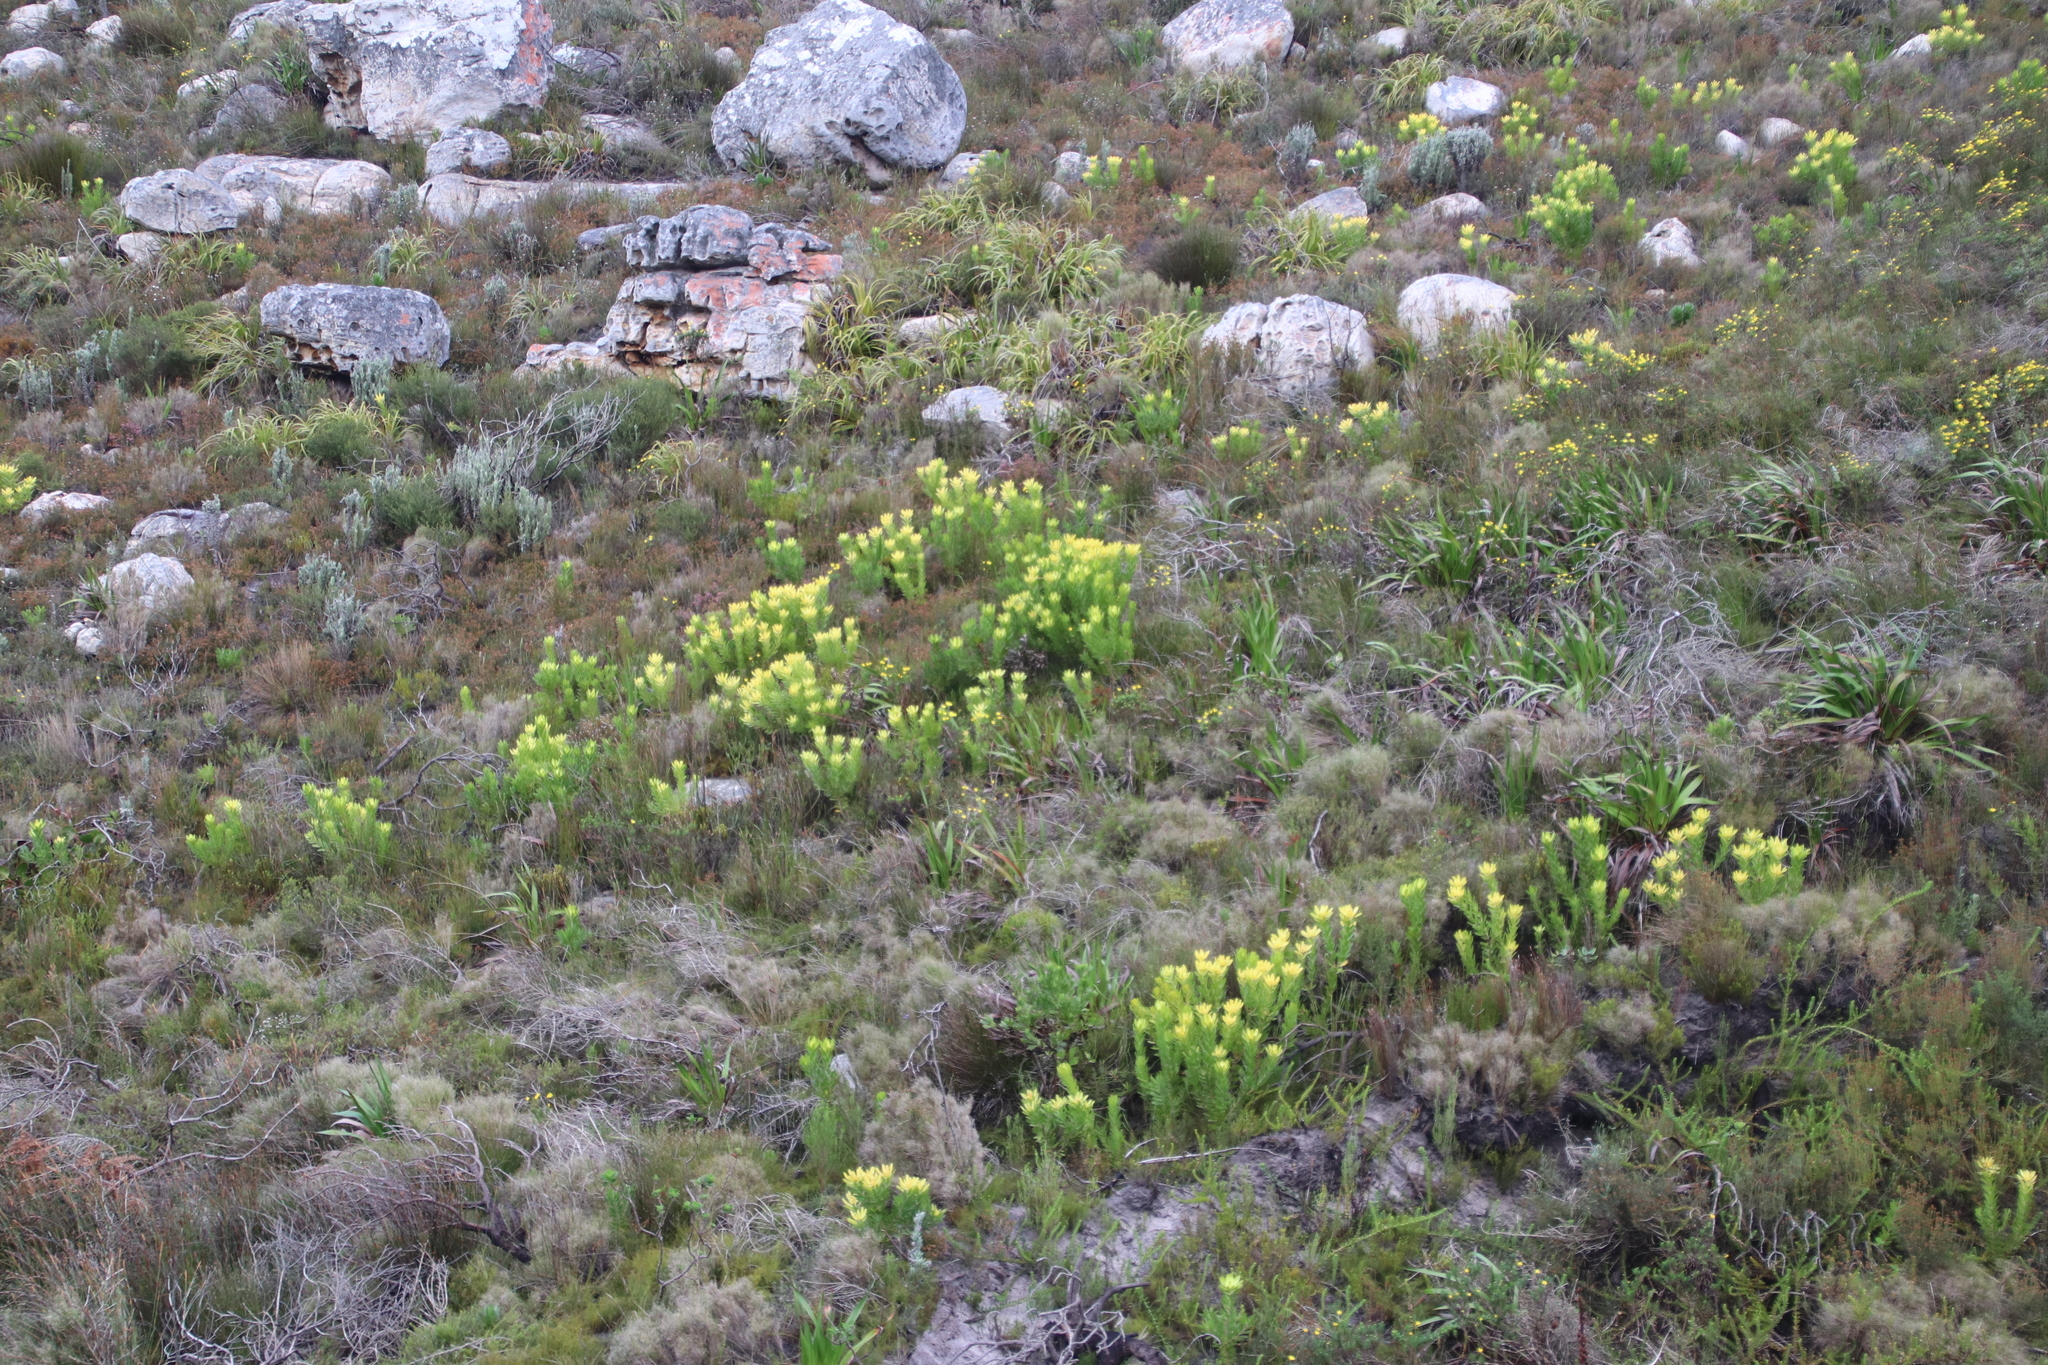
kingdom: Plantae
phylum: Tracheophyta
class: Magnoliopsida
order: Proteales
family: Proteaceae
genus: Leucadendron
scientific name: Leucadendron laureolum
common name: Golden sunshinebush
